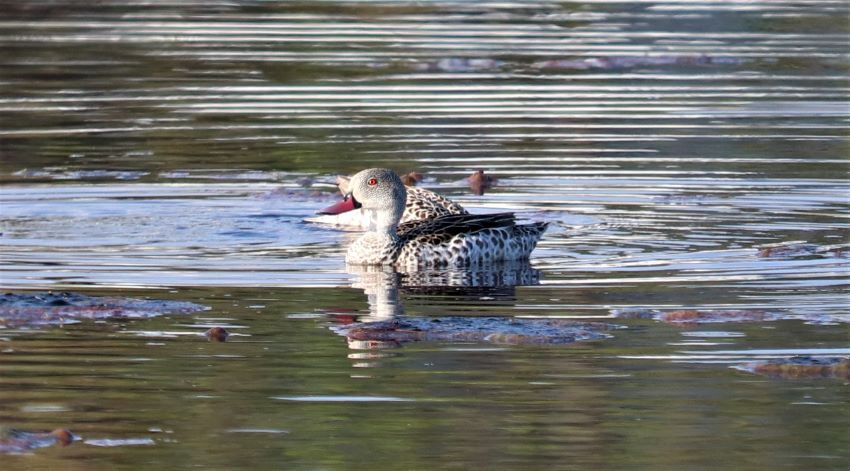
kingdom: Animalia
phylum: Chordata
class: Aves
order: Anseriformes
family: Anatidae
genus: Anas
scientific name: Anas capensis
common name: Cape teal
